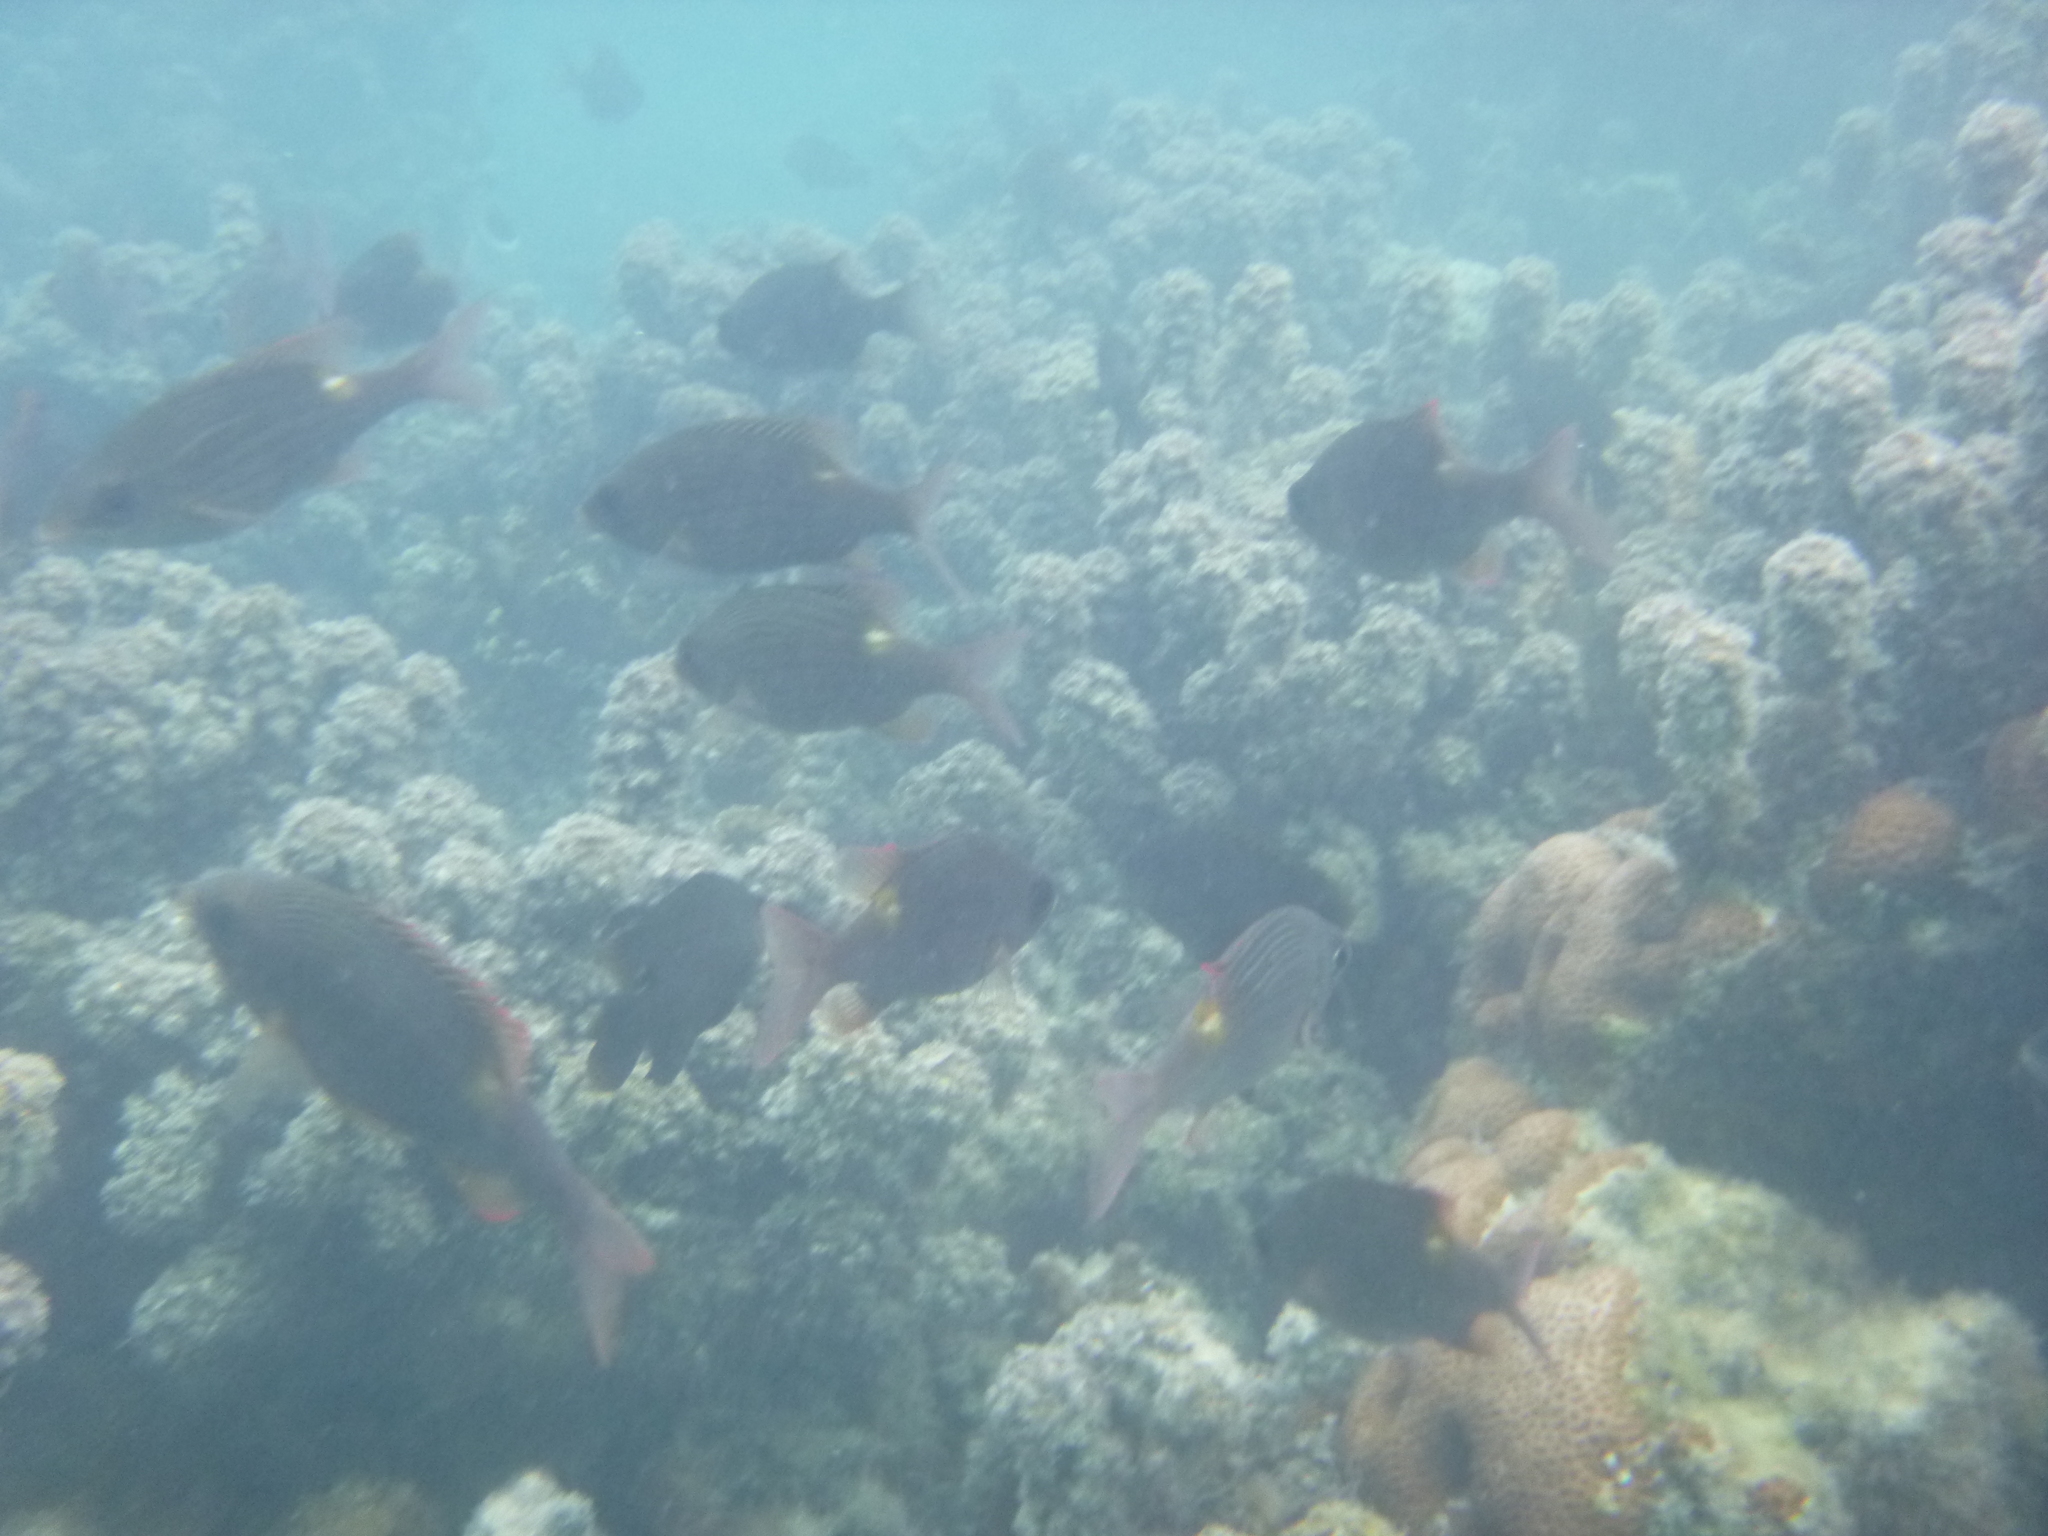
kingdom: Animalia
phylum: Chordata
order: Perciformes
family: Lethrinidae
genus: Gnathodentex
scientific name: Gnathodentex aureolineatus
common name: Gold-lined sea bream
